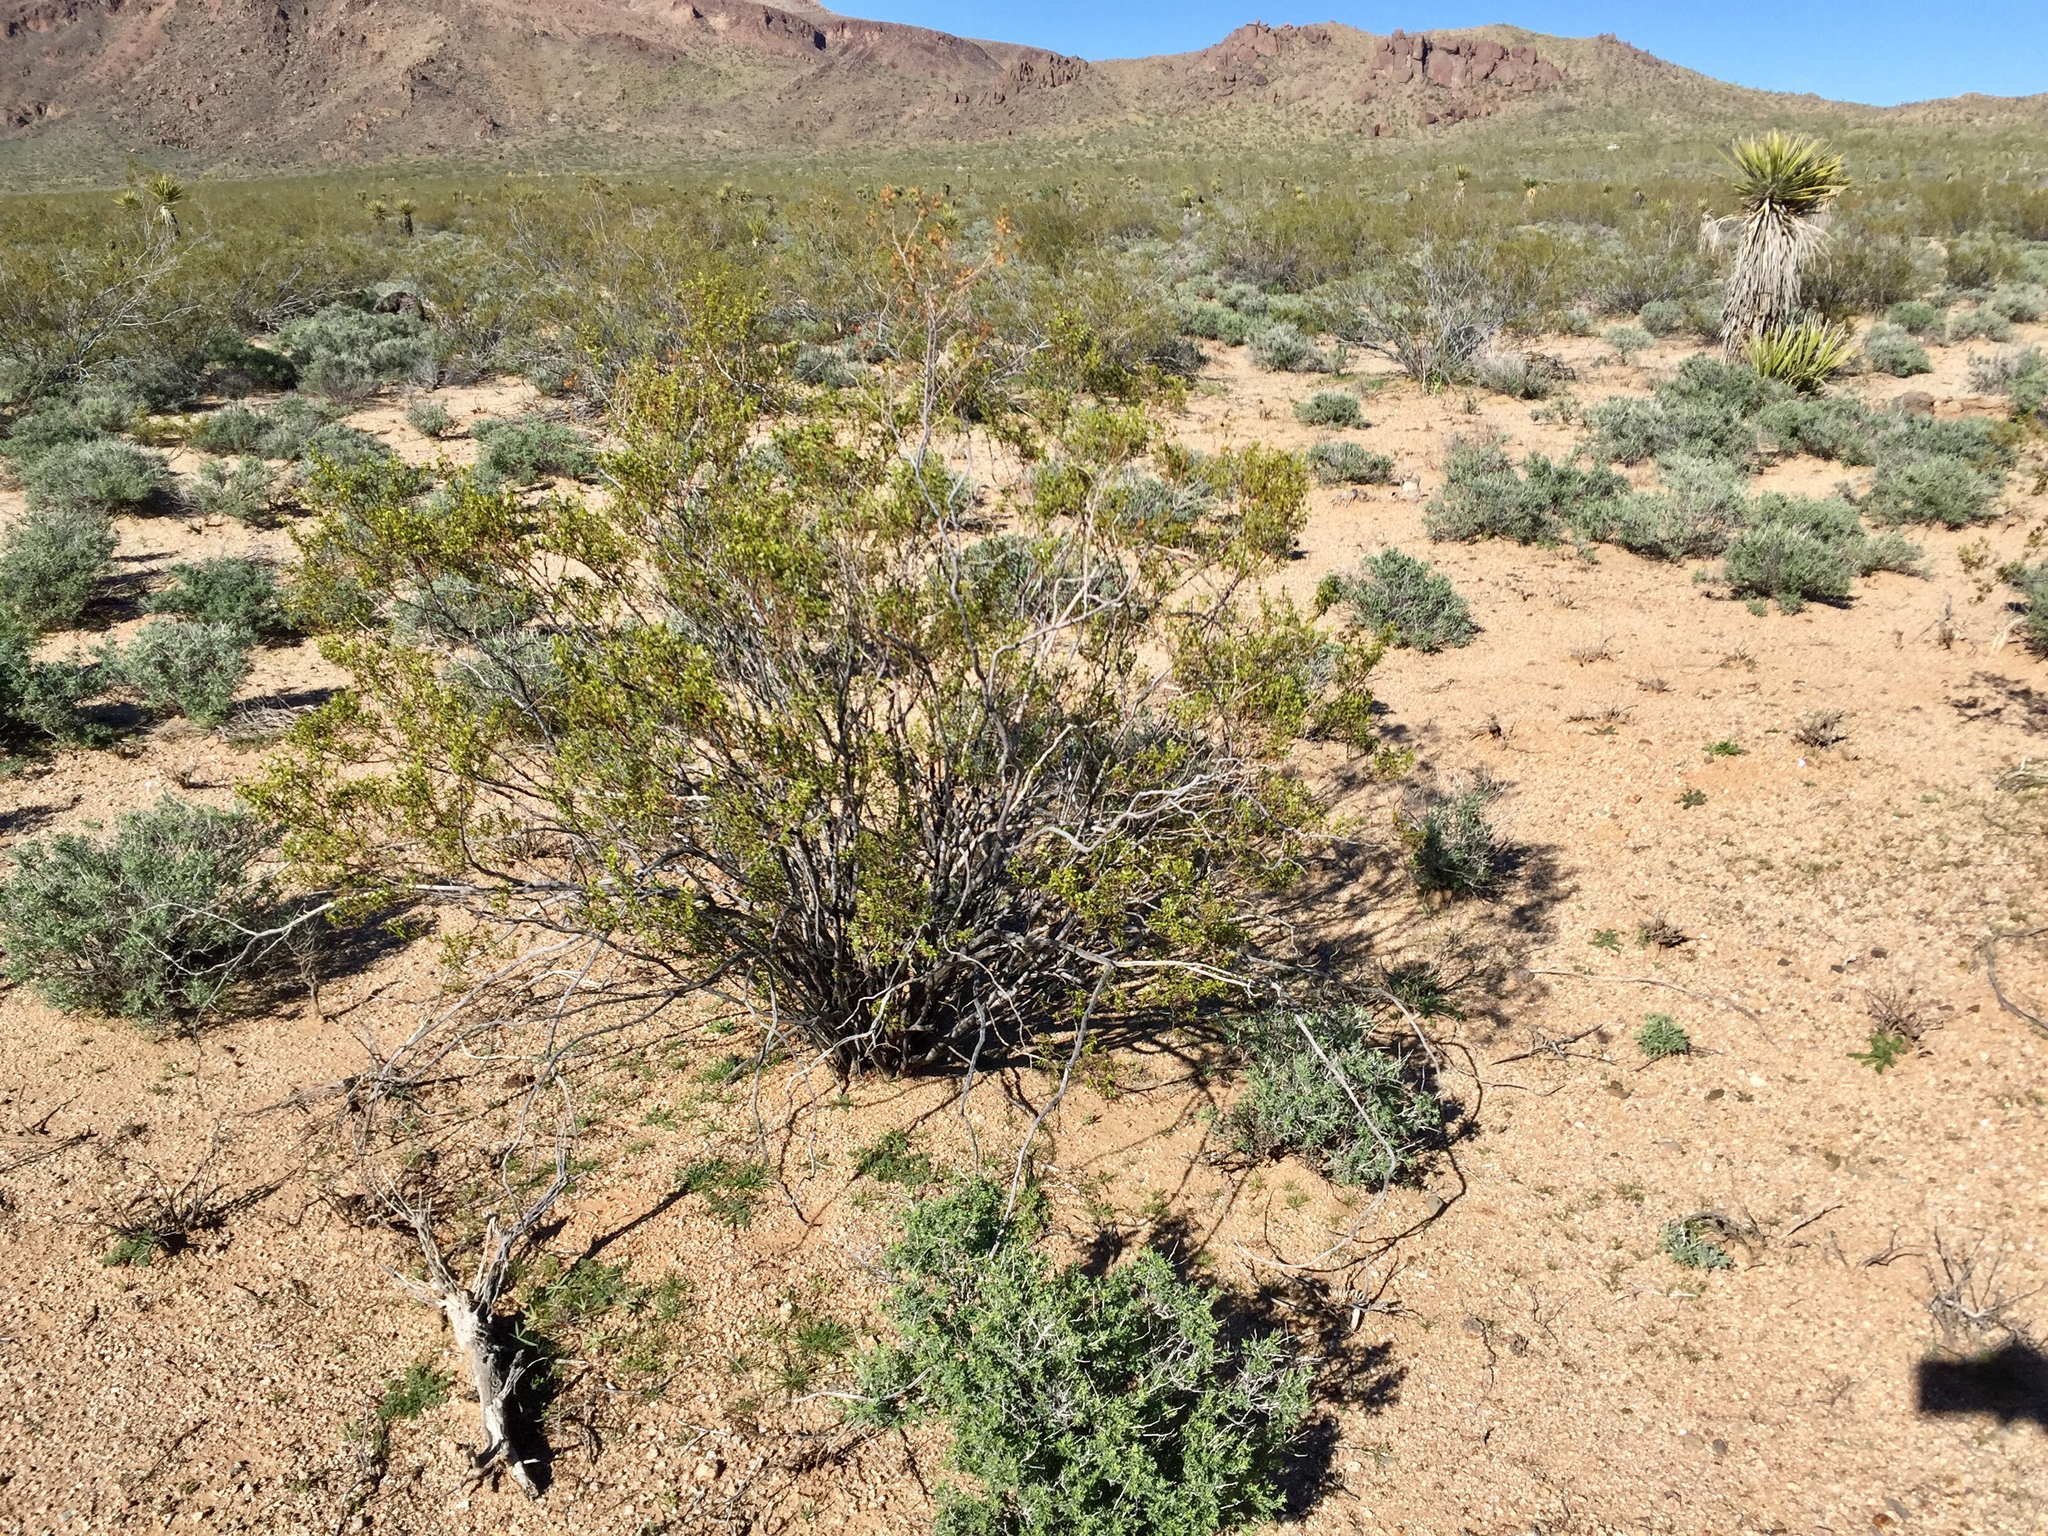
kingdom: Plantae
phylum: Tracheophyta
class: Magnoliopsida
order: Zygophyllales
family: Zygophyllaceae
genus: Larrea
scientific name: Larrea tridentata
